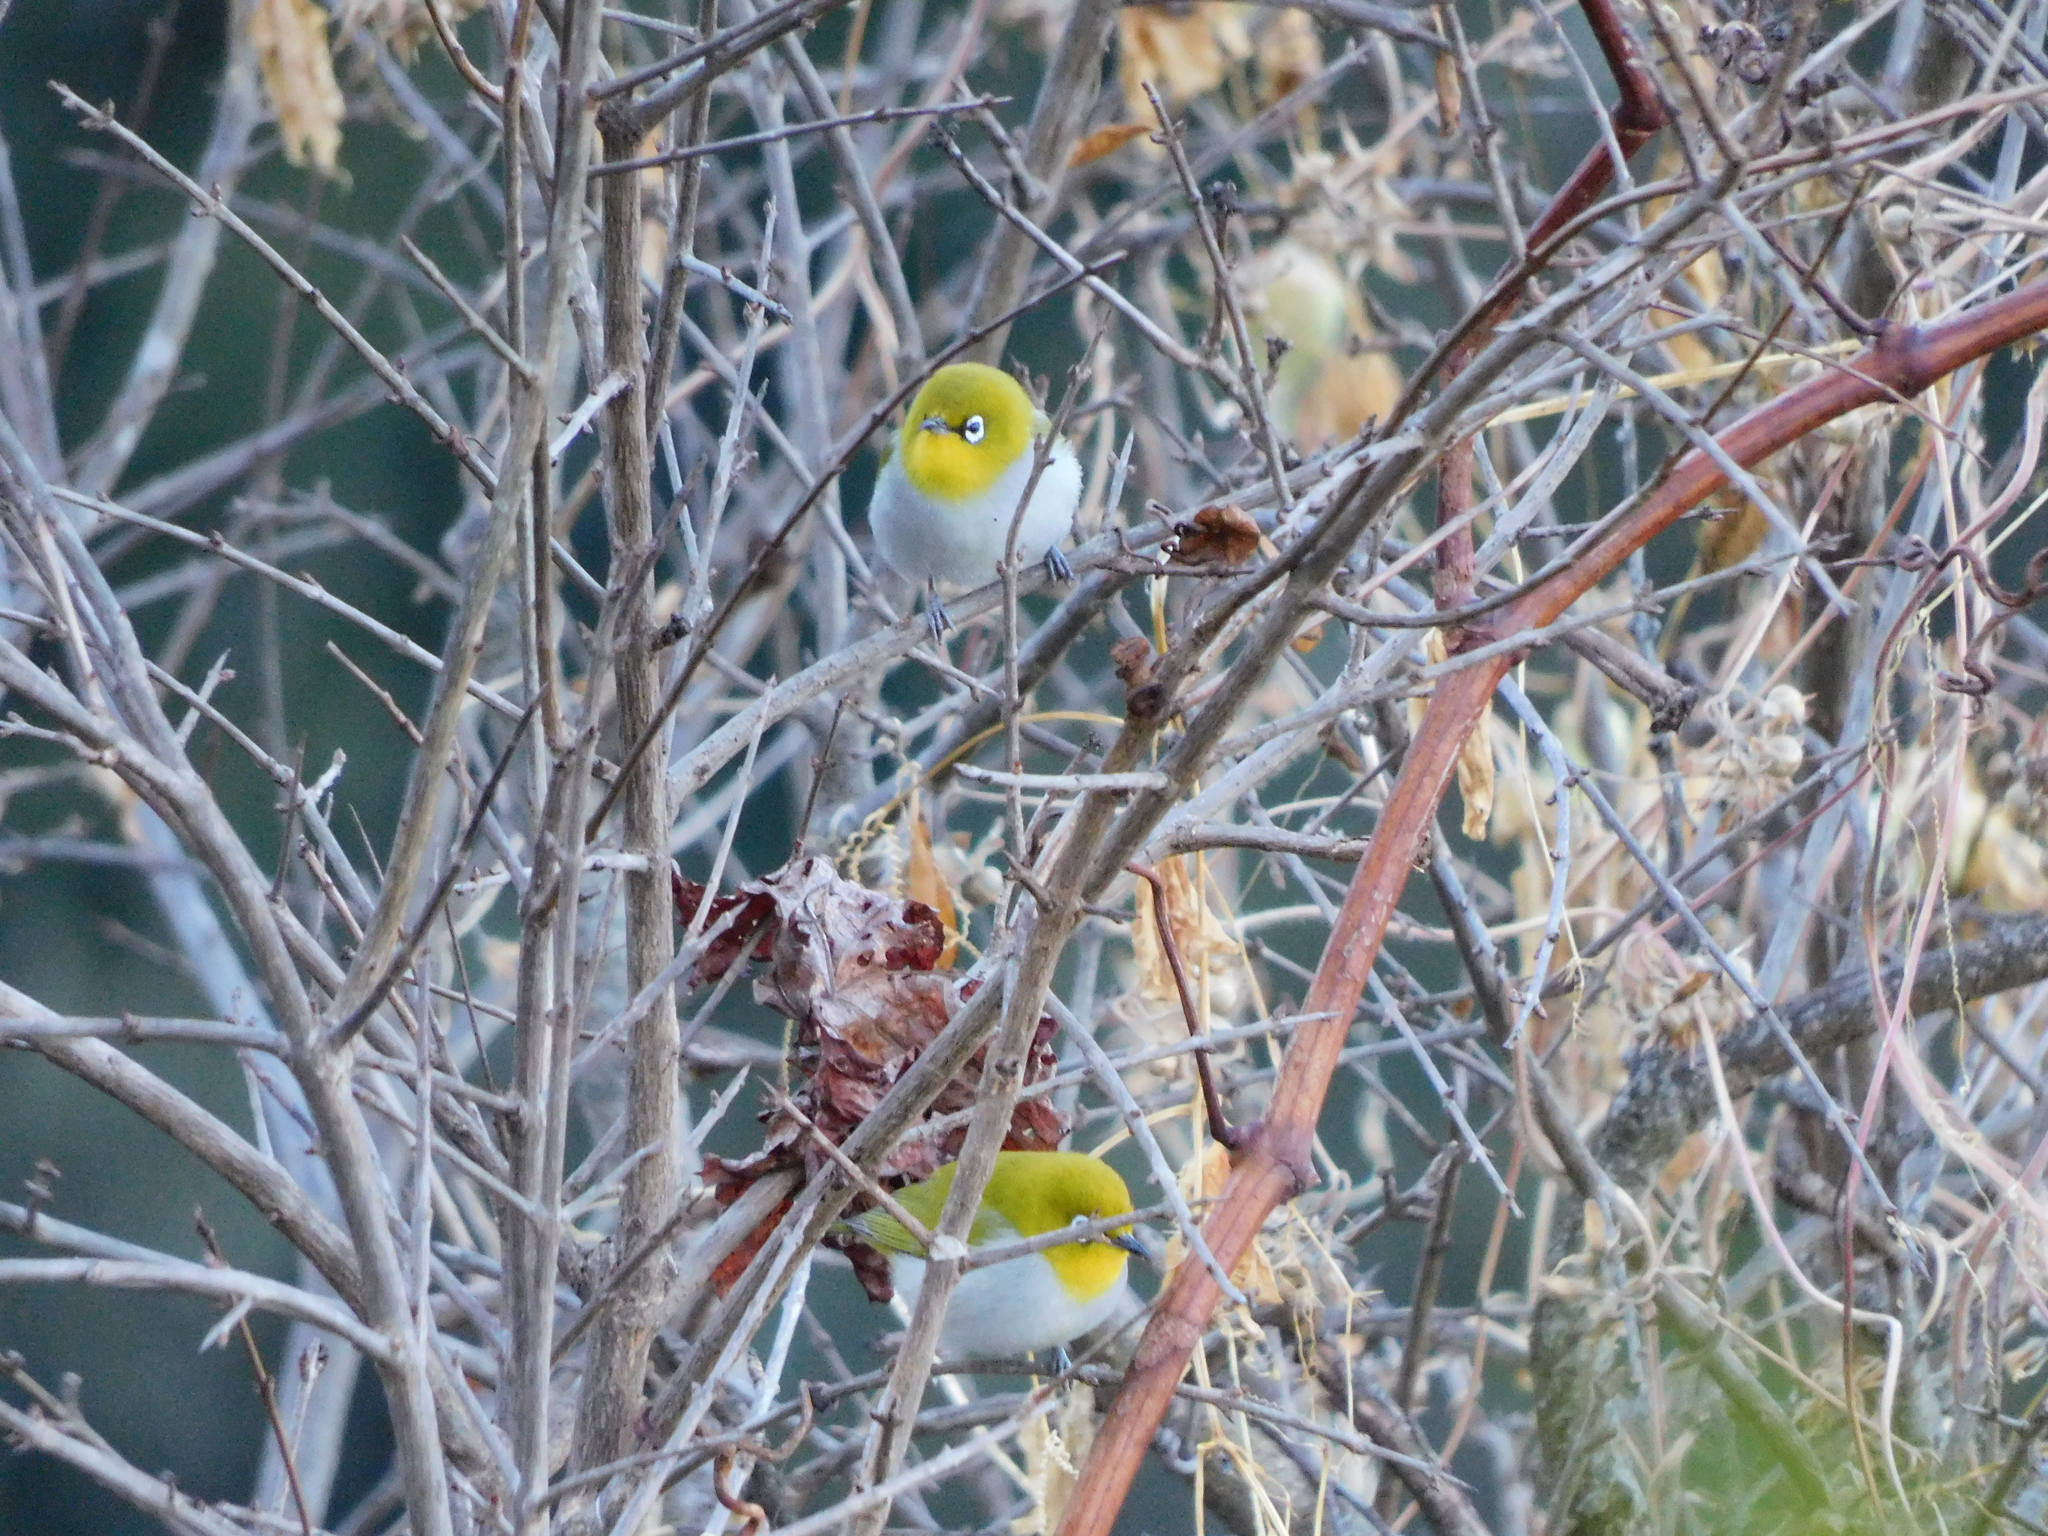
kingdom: Animalia
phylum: Chordata
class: Aves
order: Passeriformes
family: Zosteropidae
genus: Zosterops
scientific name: Zosterops palpebrosus
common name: Oriental white-eye
